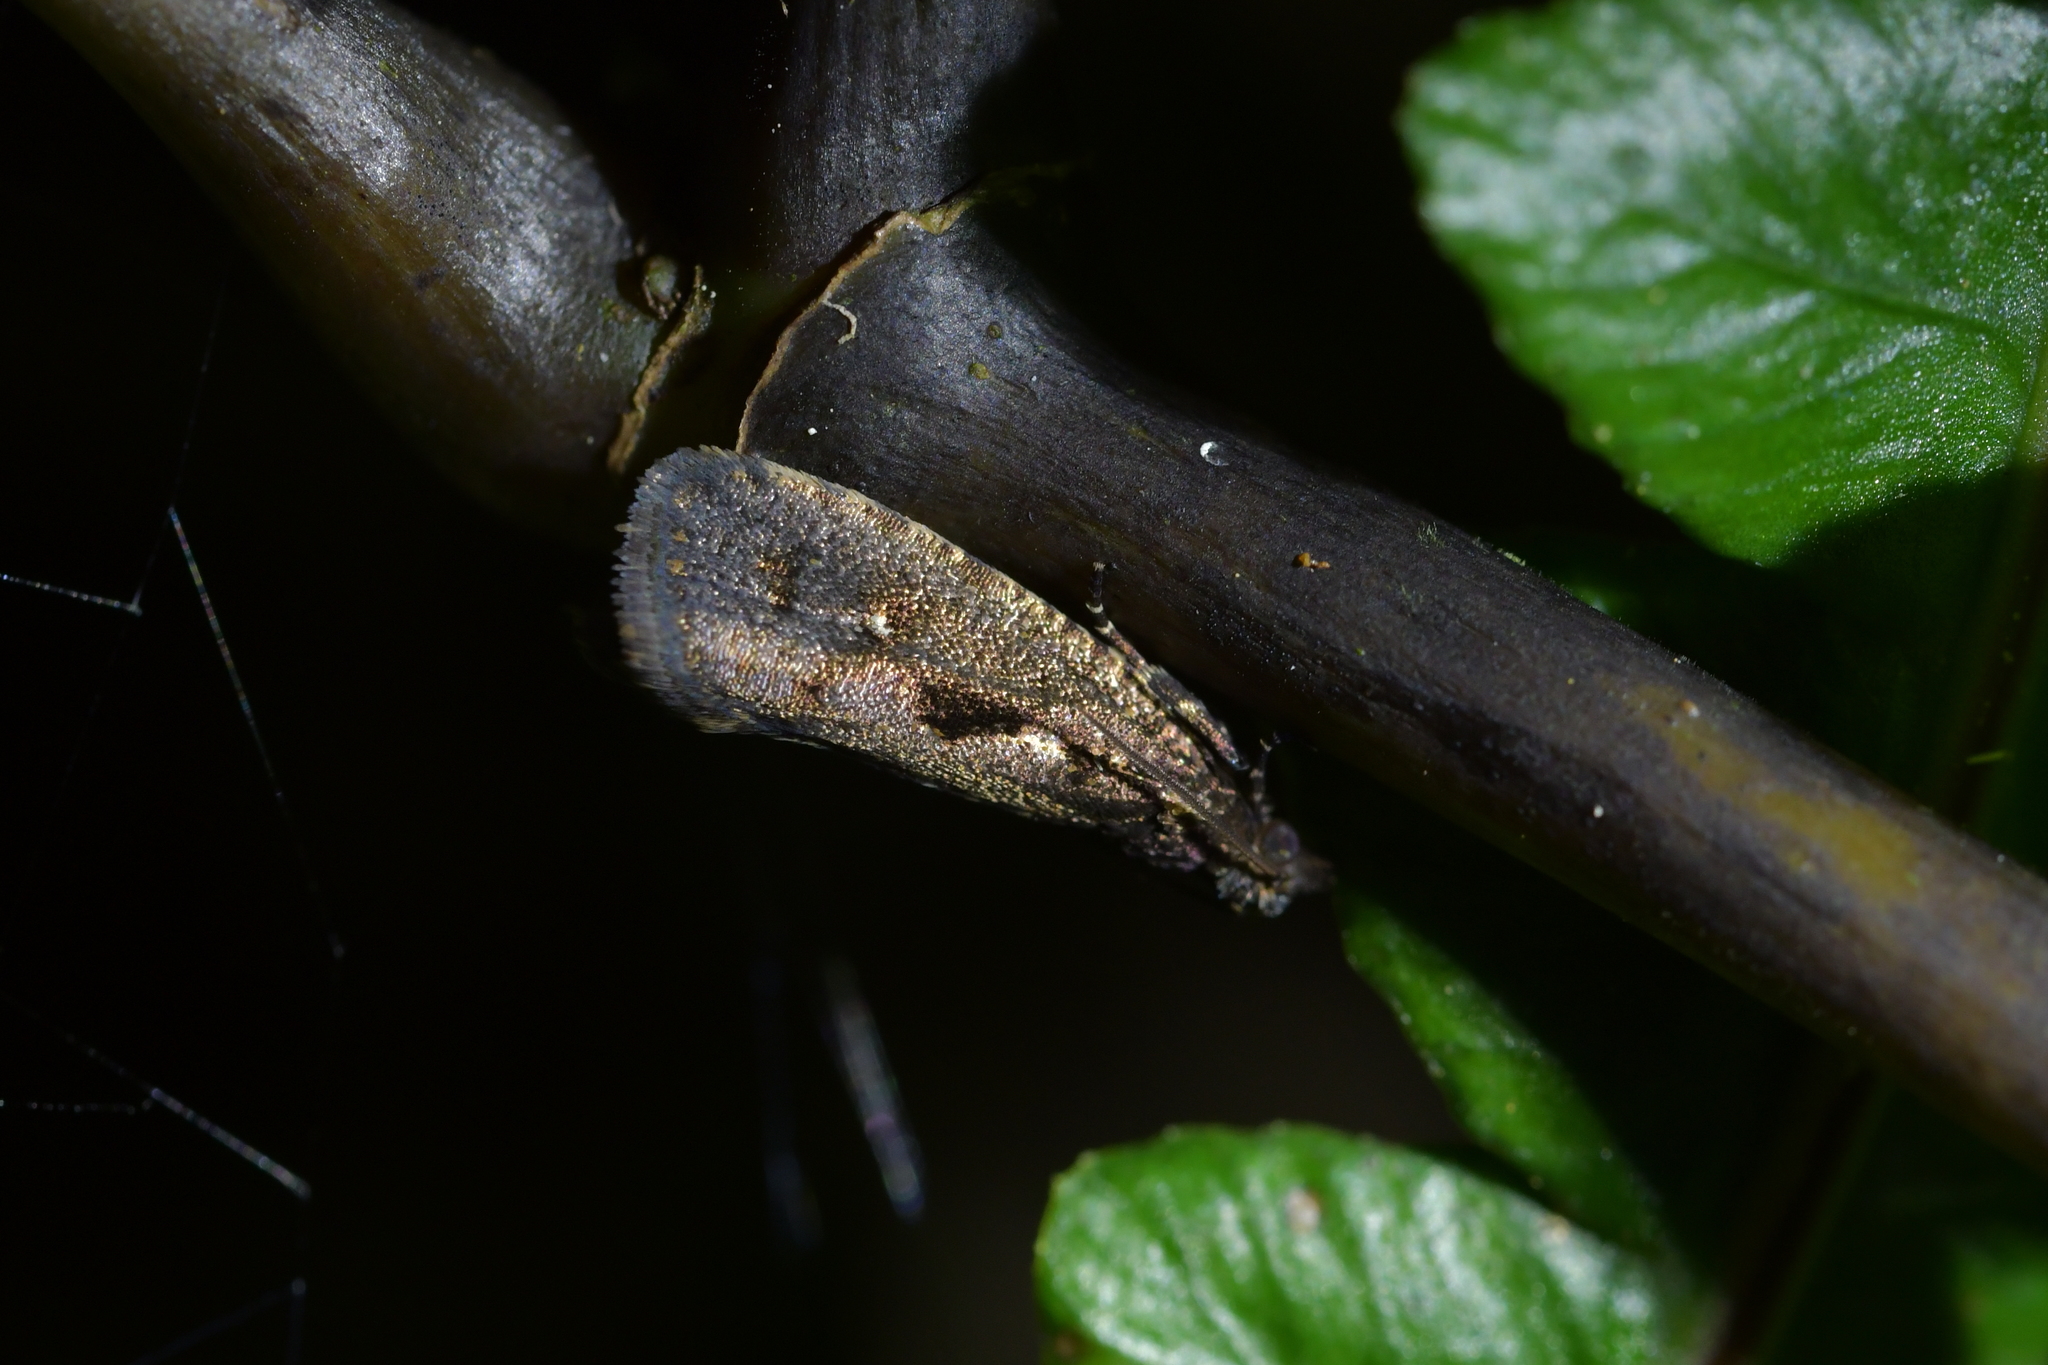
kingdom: Animalia
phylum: Arthropoda
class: Insecta
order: Lepidoptera
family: Tortricidae
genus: Cryptaspasma
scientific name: Cryptaspasma querula
